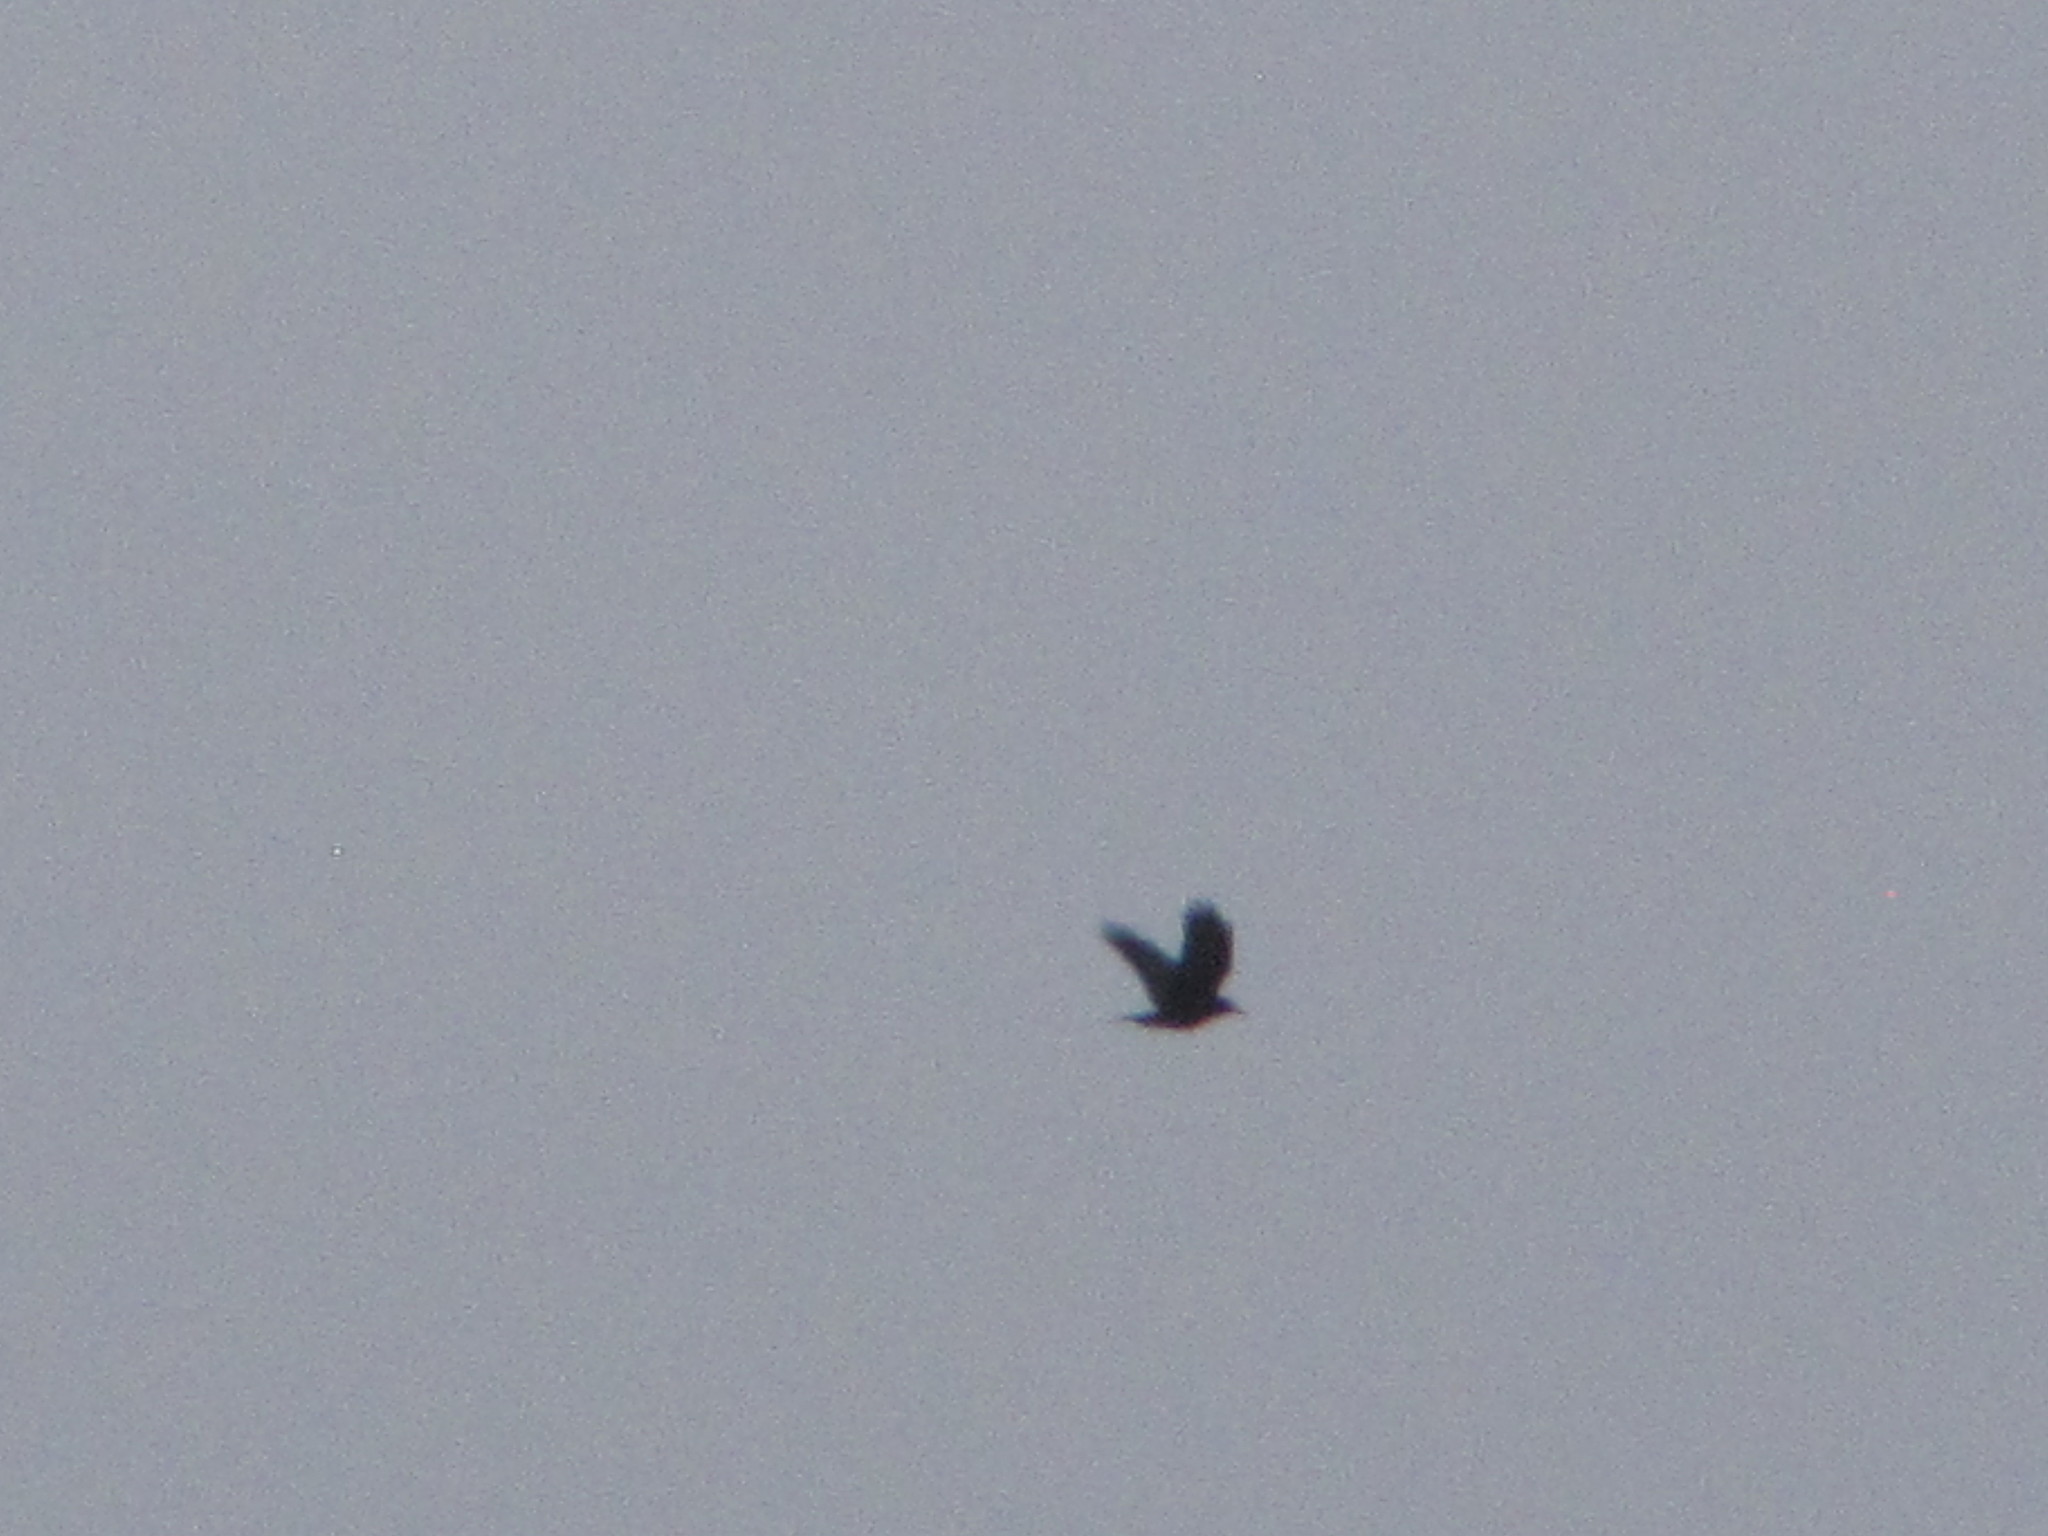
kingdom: Animalia
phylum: Chordata
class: Aves
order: Passeriformes
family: Corvidae
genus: Corvus
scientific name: Corvus brachyrhynchos
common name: American crow
